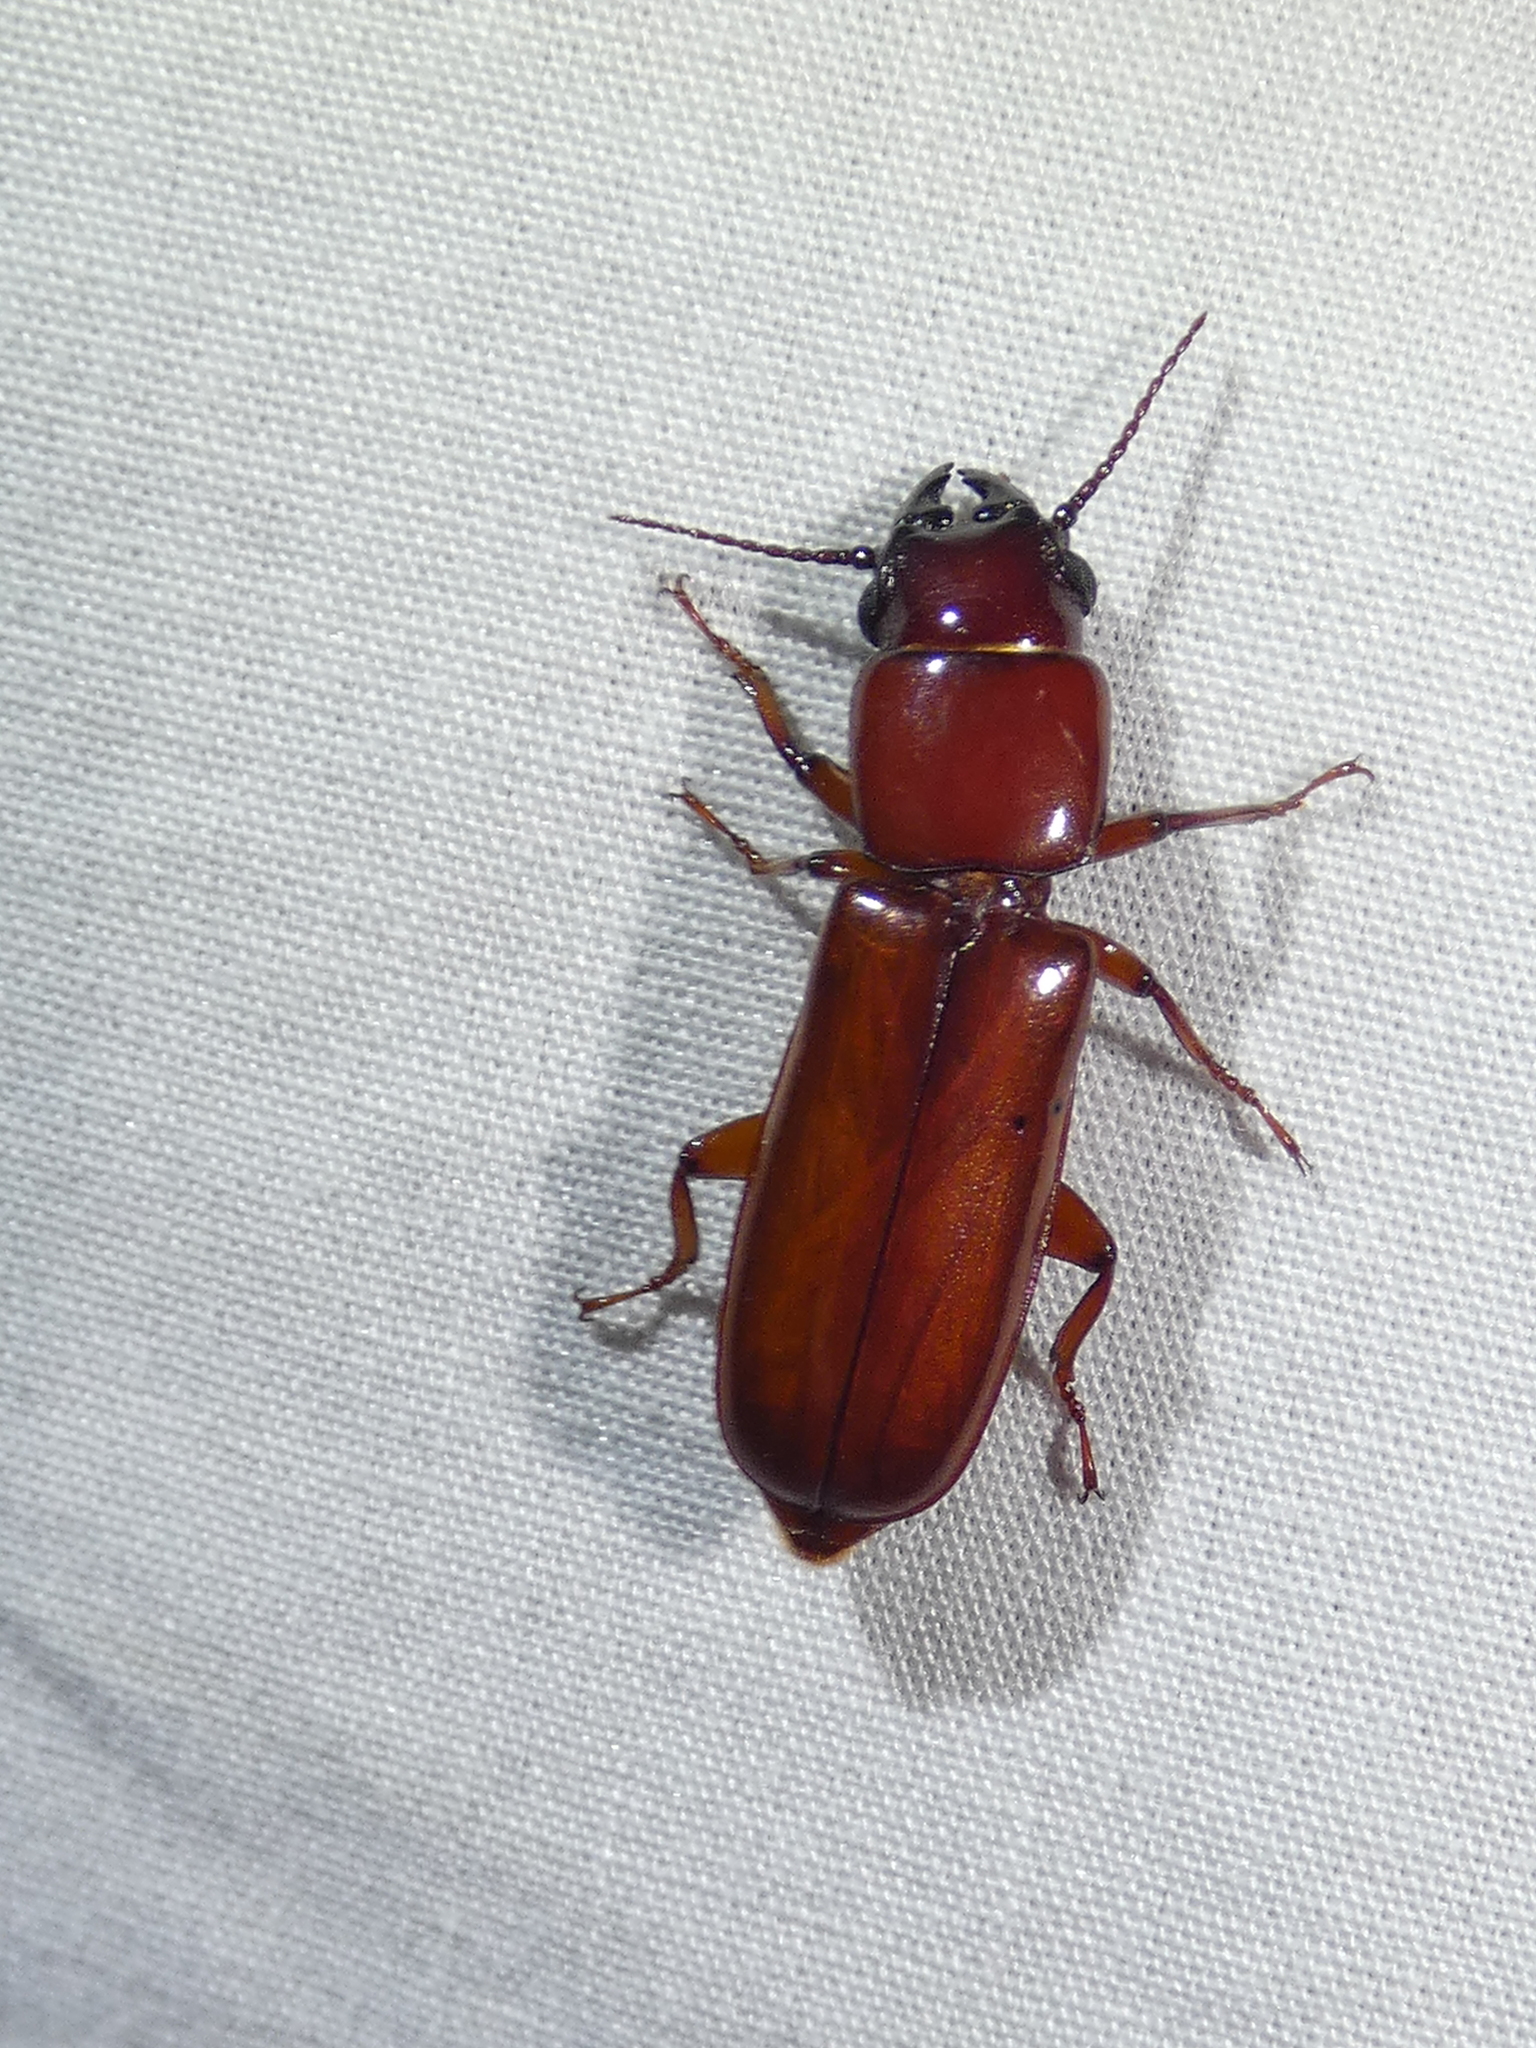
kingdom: Animalia
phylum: Arthropoda
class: Insecta
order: Coleoptera
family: Cerambycidae
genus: Parandra
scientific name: Parandra polita
